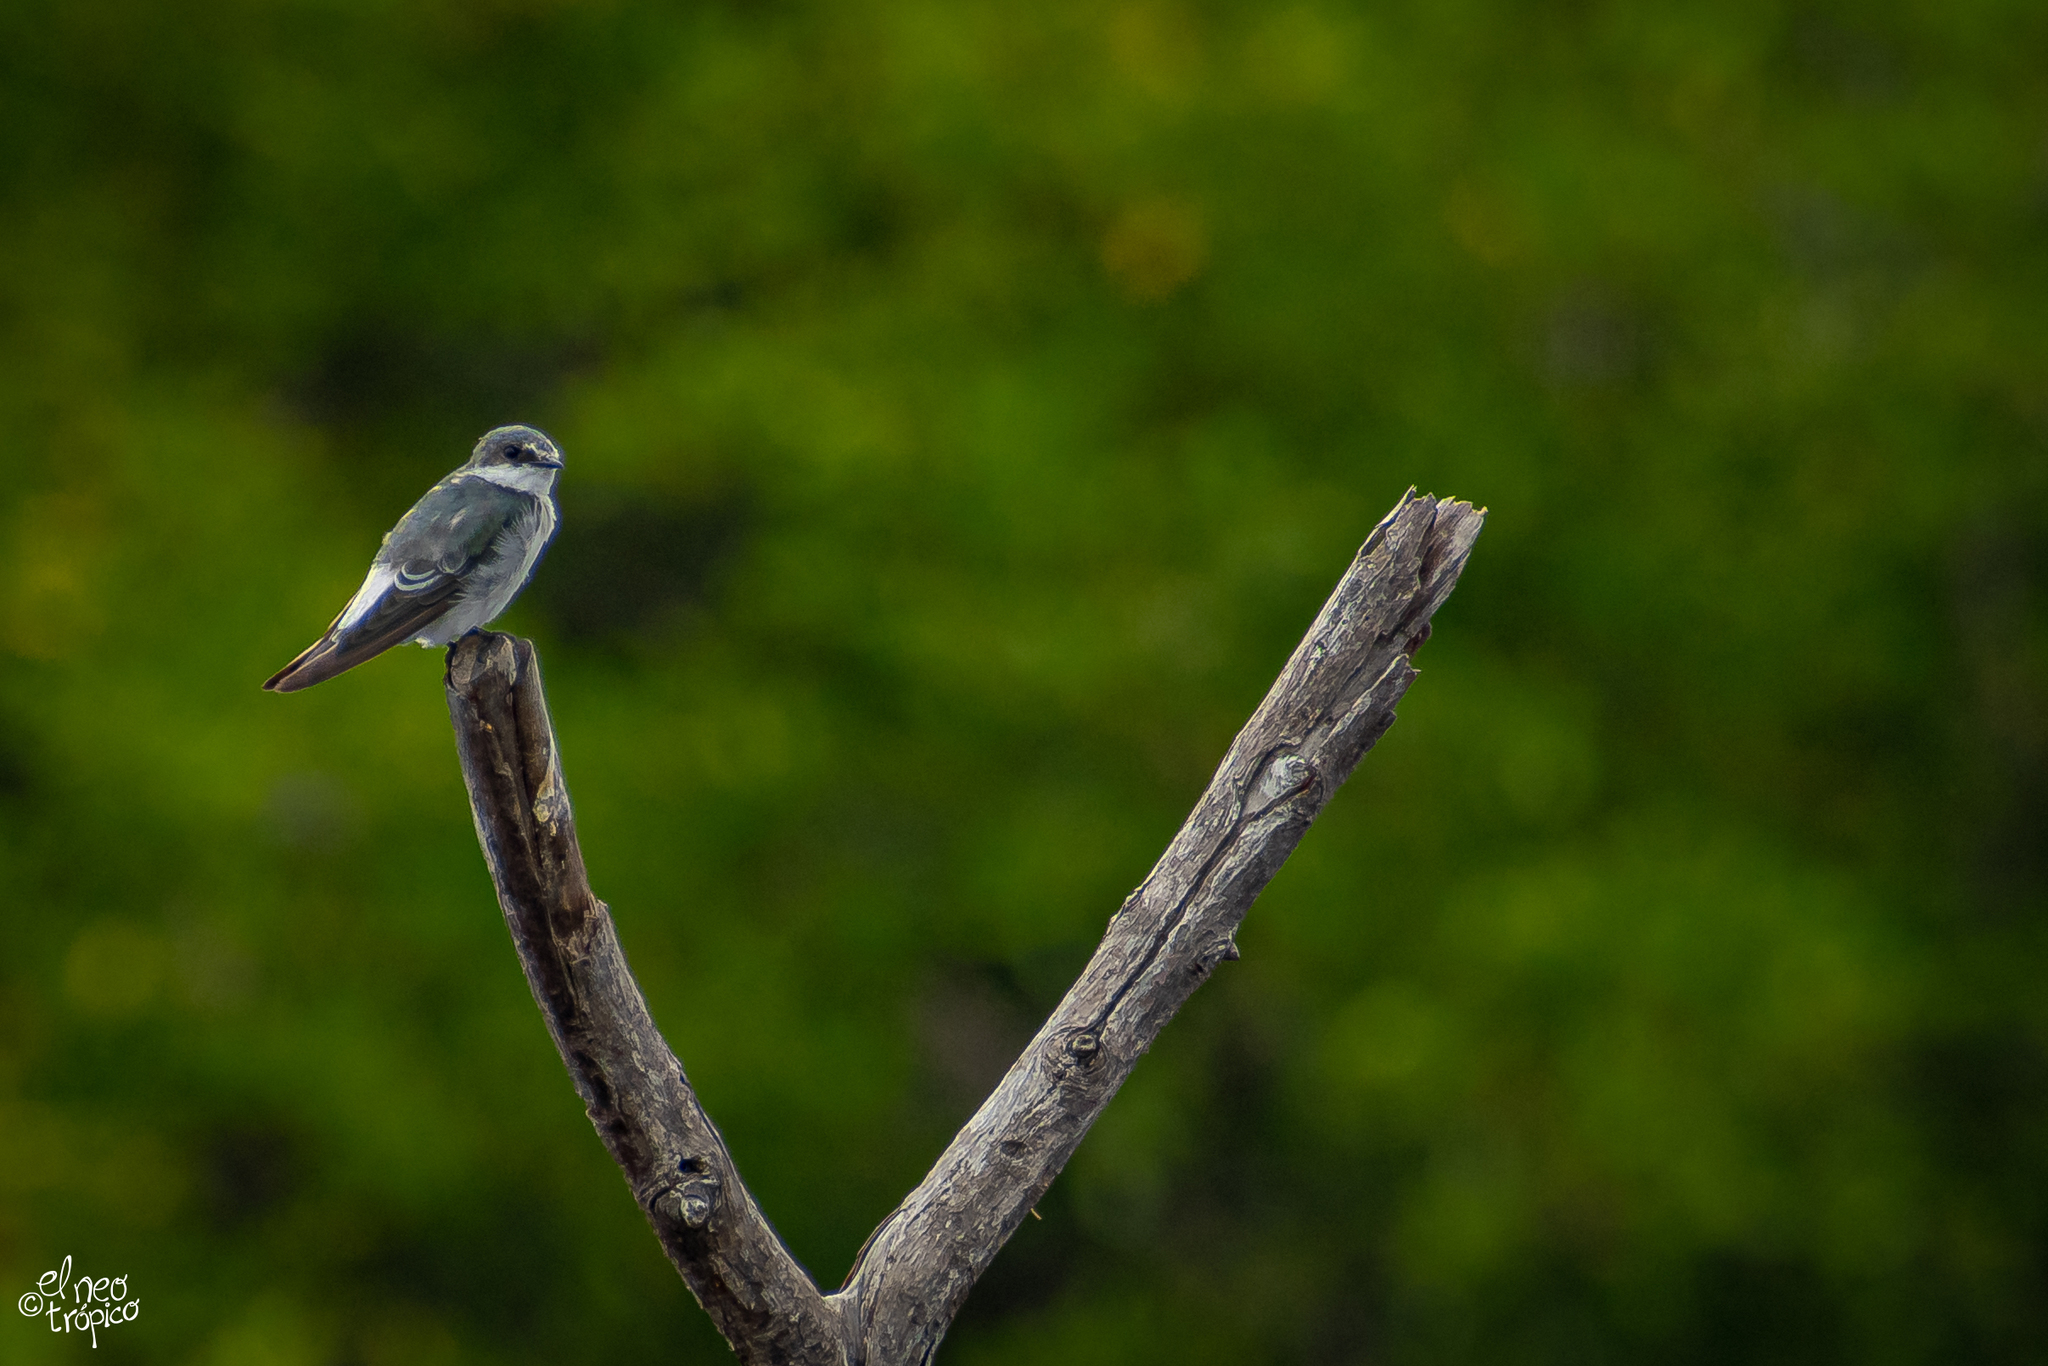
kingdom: Animalia
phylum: Chordata
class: Aves
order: Passeriformes
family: Hirundinidae
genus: Tachycineta
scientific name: Tachycineta albilinea
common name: Mangrove swallow
